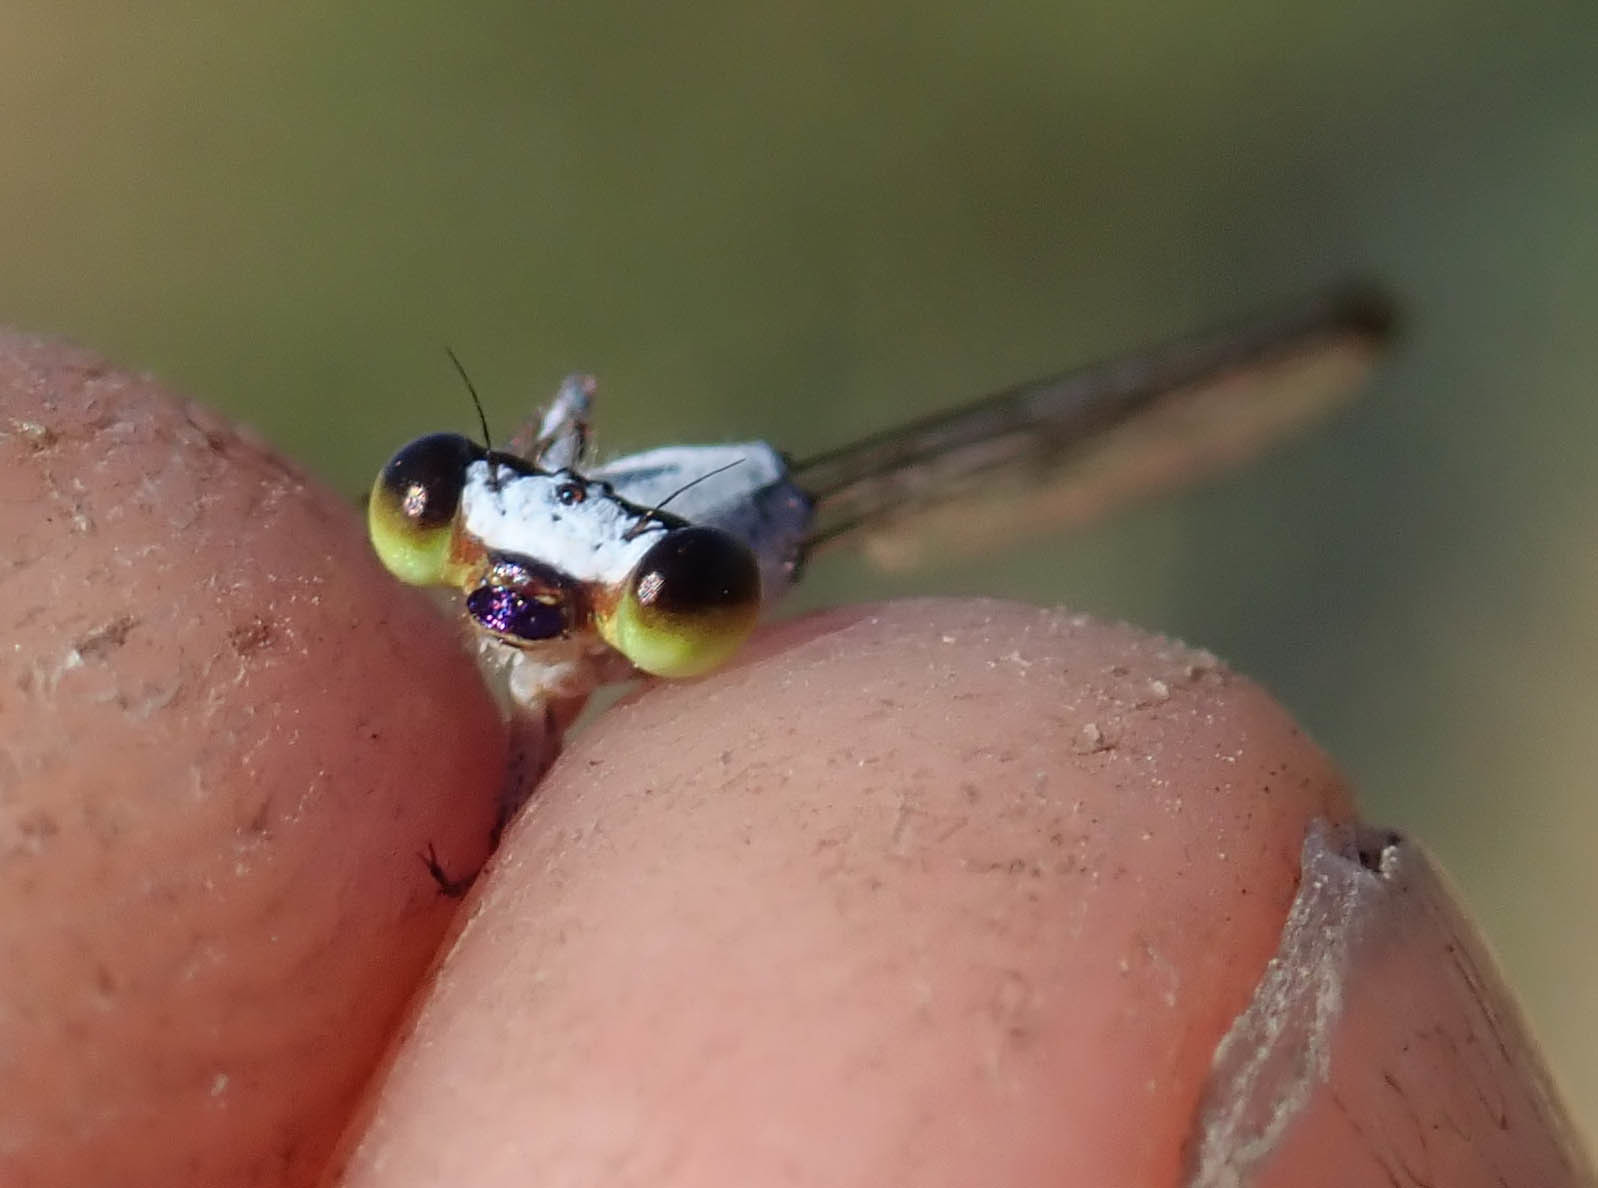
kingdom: Animalia
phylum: Arthropoda
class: Insecta
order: Odonata
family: Coenagrionidae
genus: Agriocnemis
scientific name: Agriocnemis ruberrima
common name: Orange wisp
